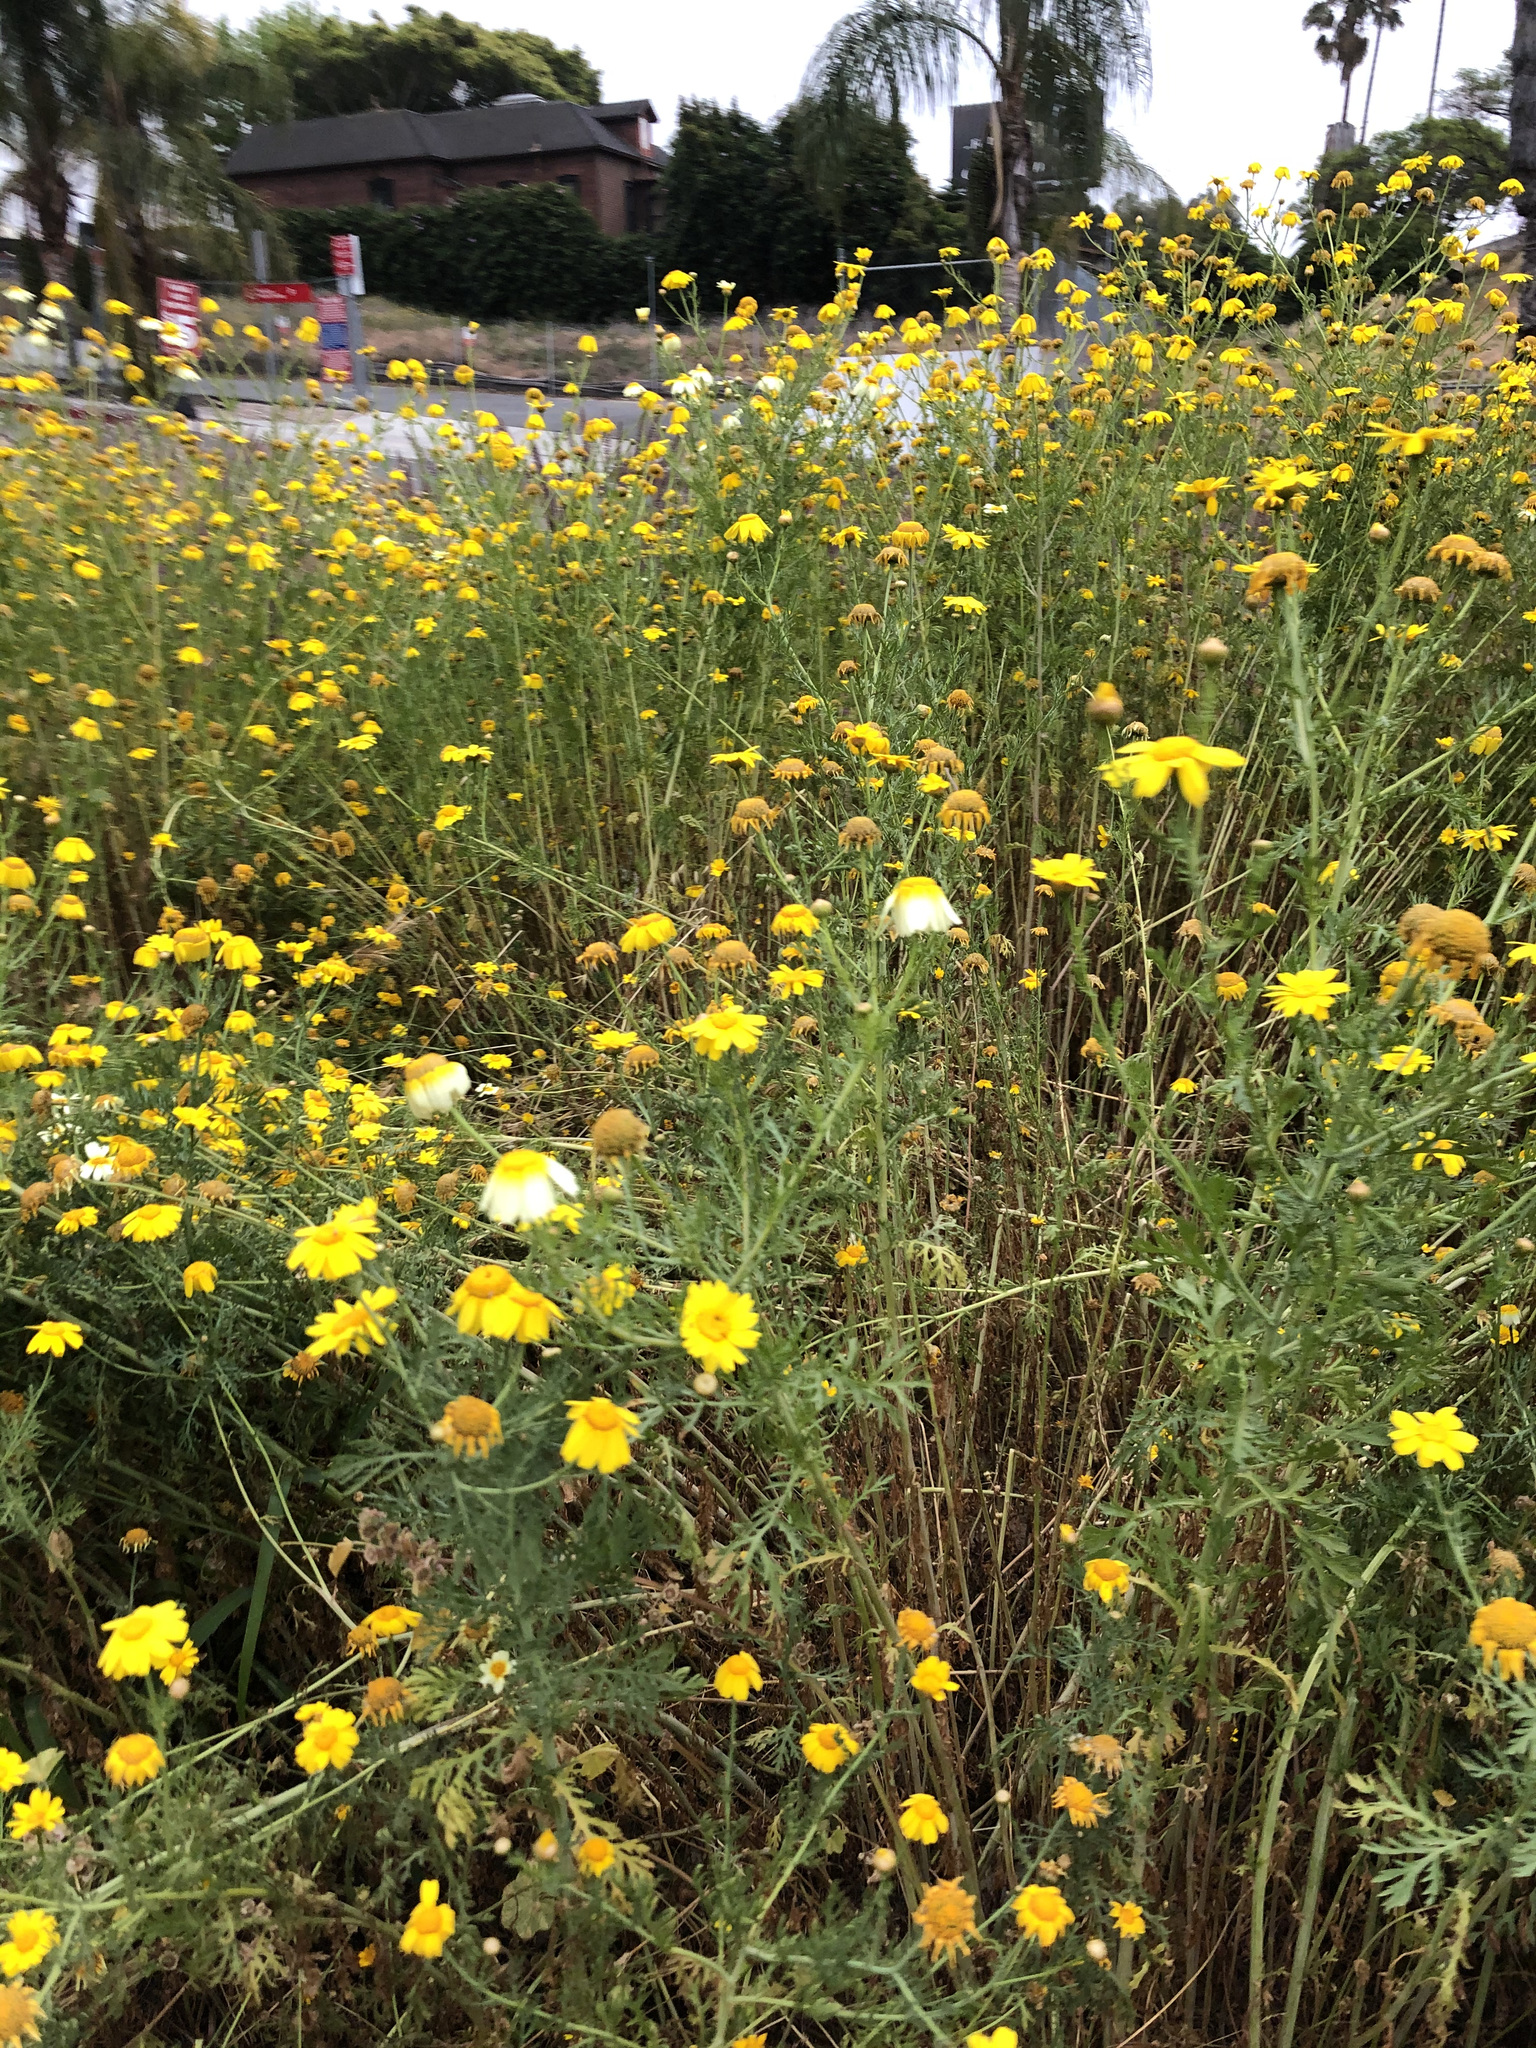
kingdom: Plantae
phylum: Tracheophyta
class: Magnoliopsida
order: Asterales
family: Asteraceae
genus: Glebionis
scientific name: Glebionis coronaria
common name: Crowndaisy
